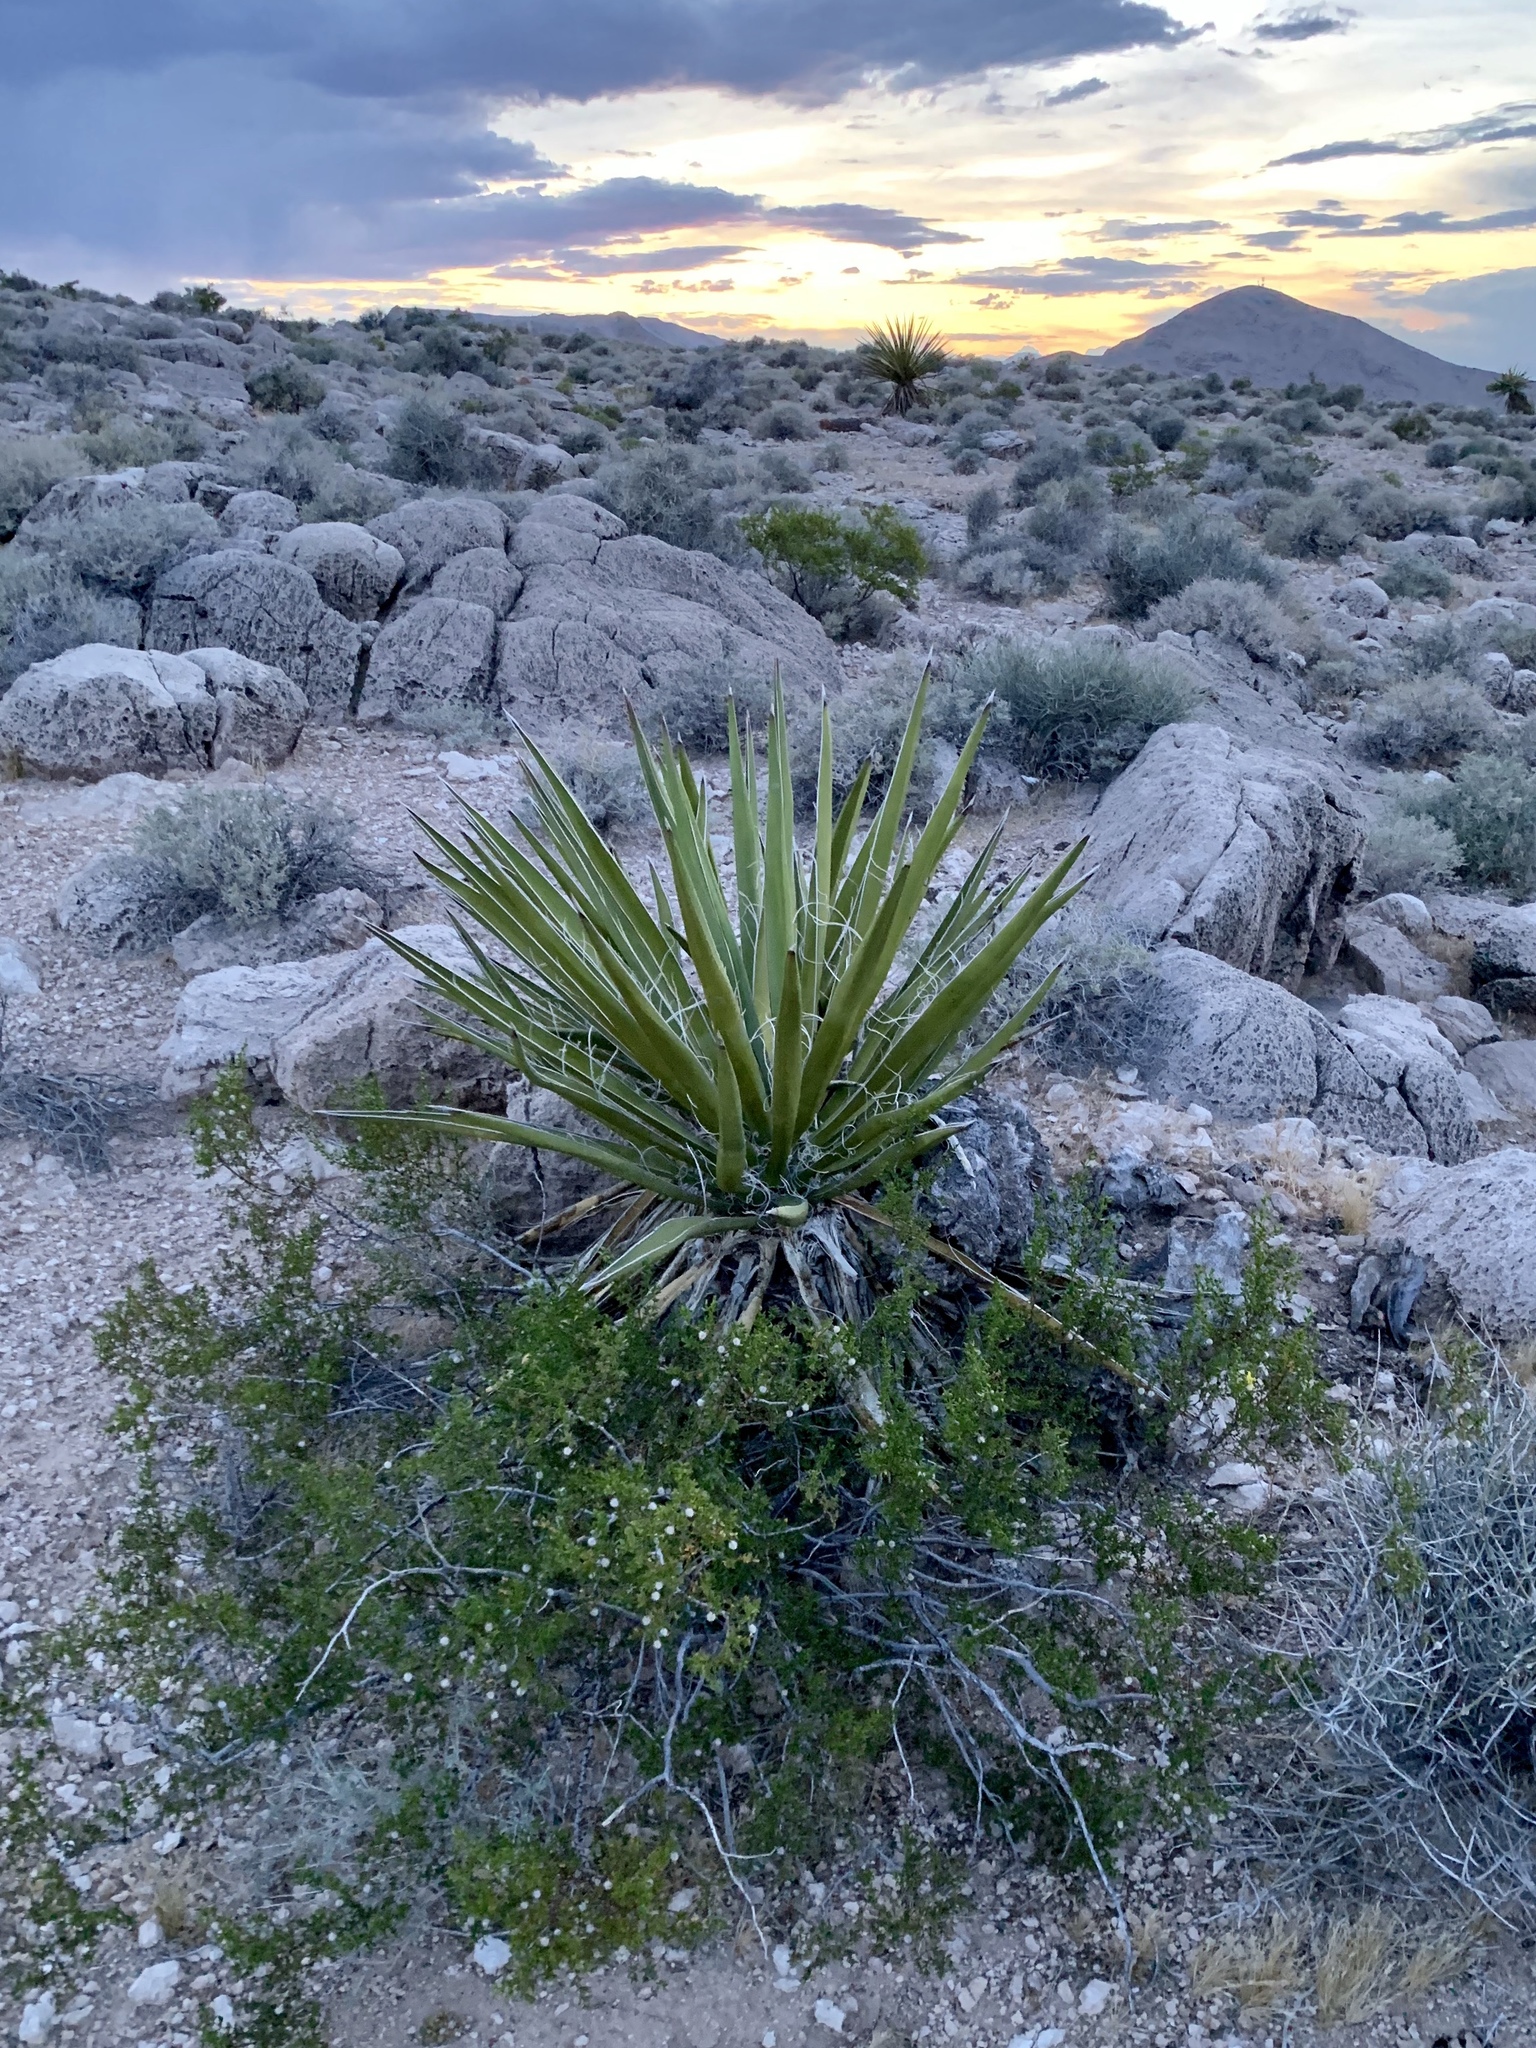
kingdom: Plantae
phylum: Tracheophyta
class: Liliopsida
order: Asparagales
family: Asparagaceae
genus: Yucca
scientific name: Yucca schidigera
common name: Mojave yucca
